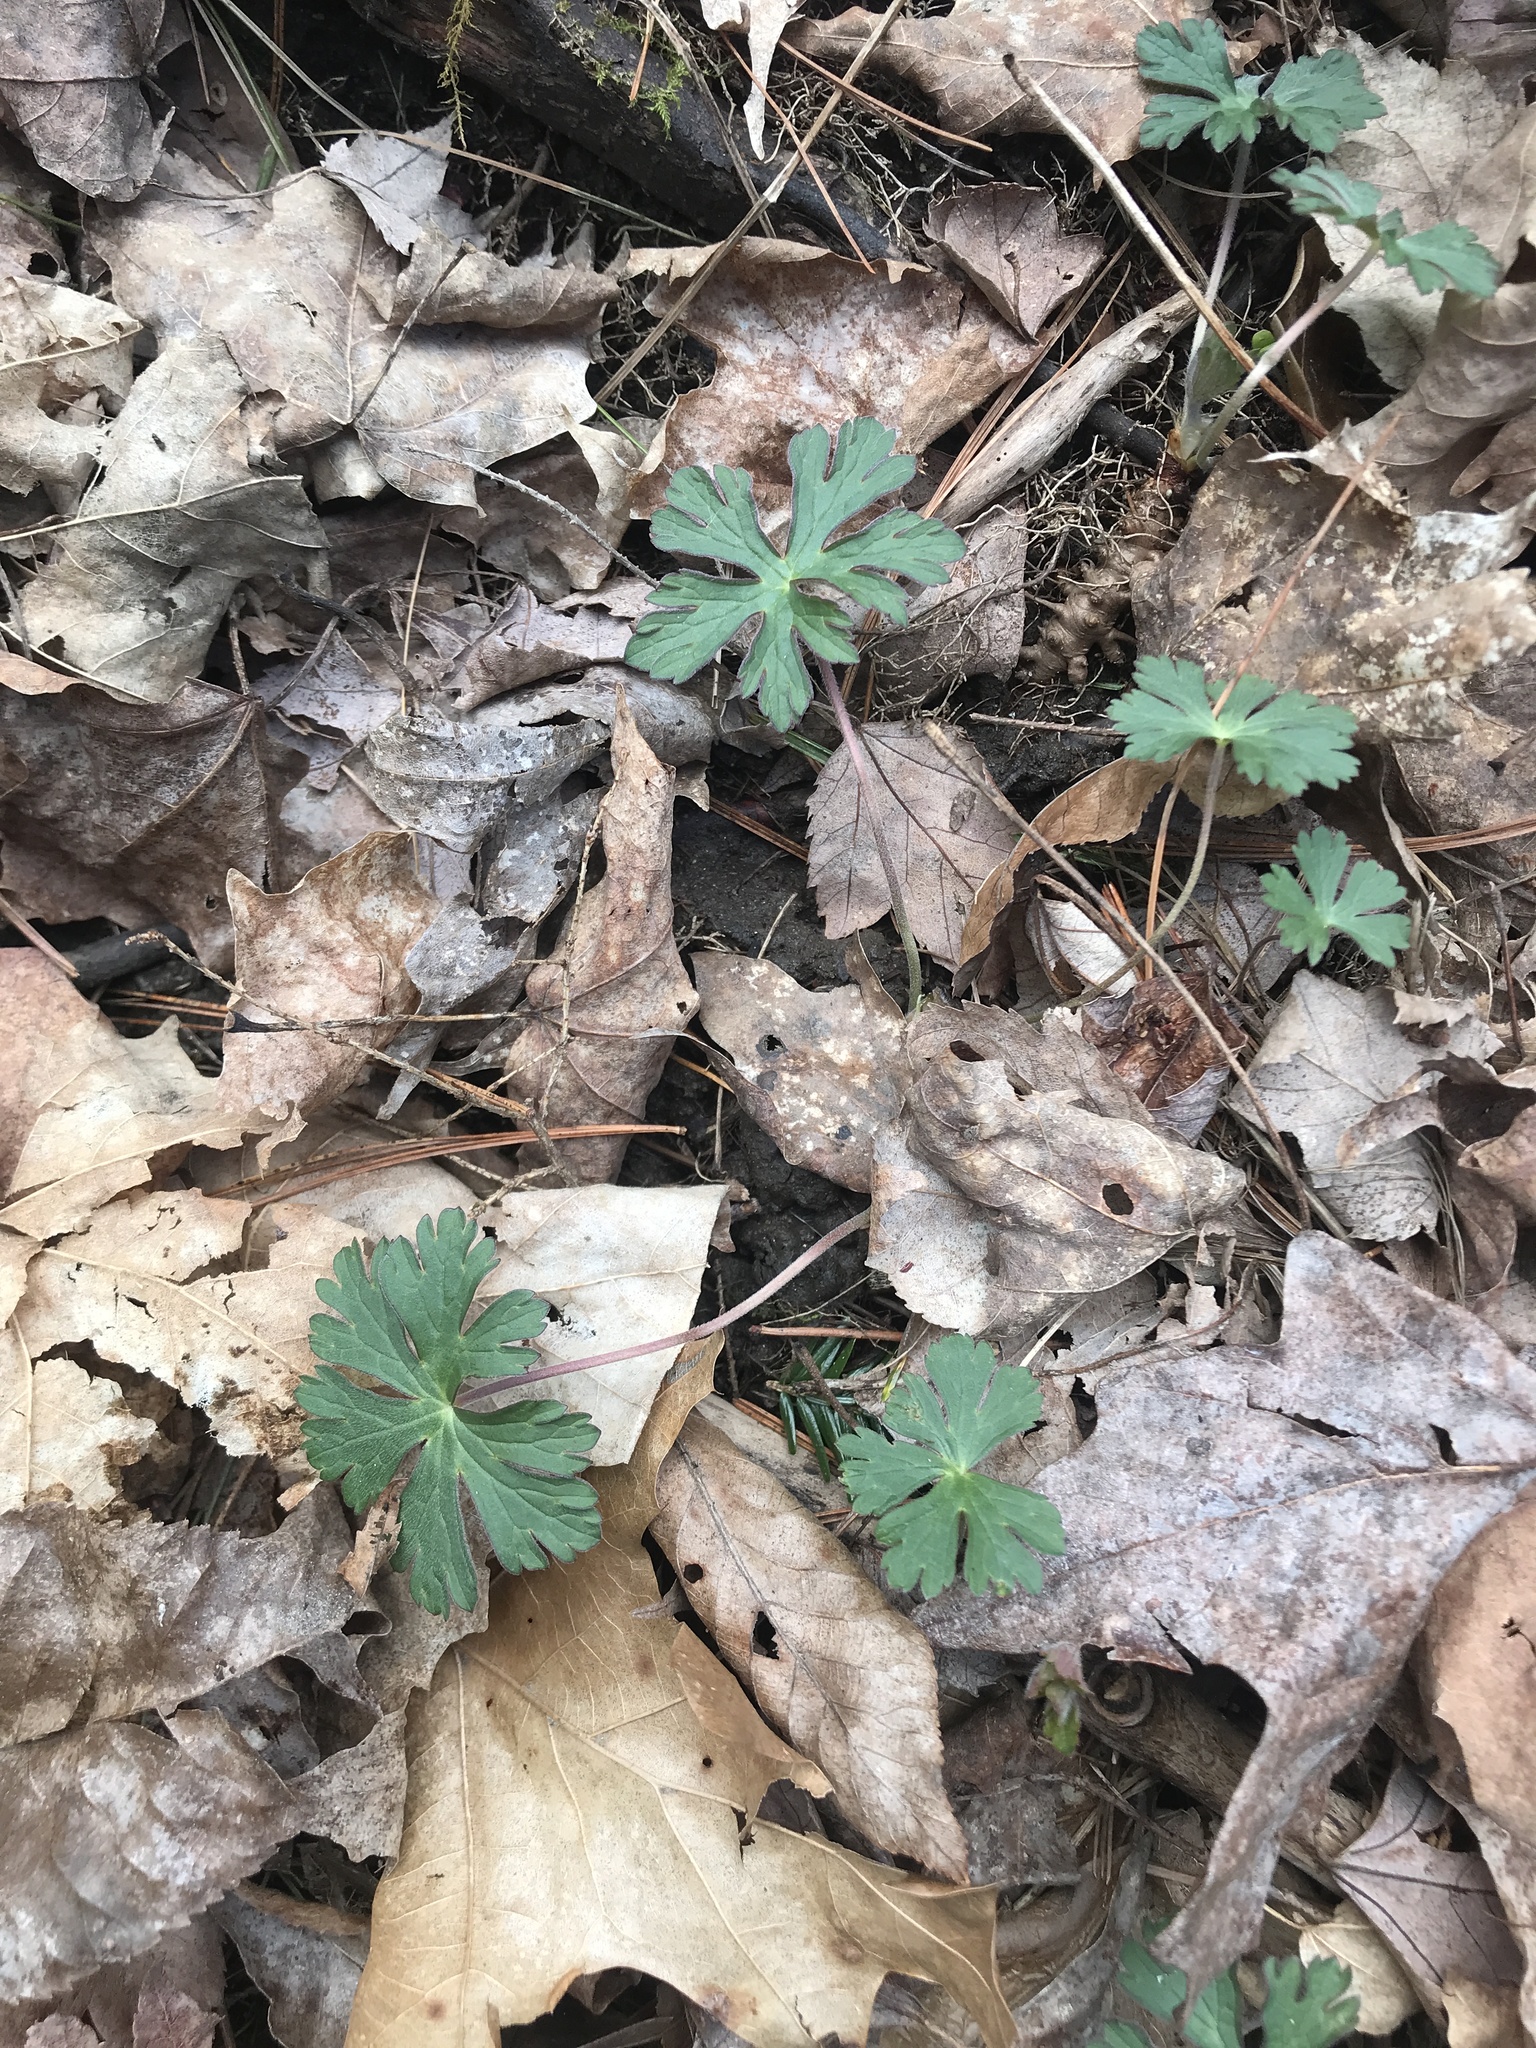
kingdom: Plantae
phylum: Tracheophyta
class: Magnoliopsida
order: Geraniales
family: Geraniaceae
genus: Geranium
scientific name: Geranium maculatum
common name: Spotted geranium
